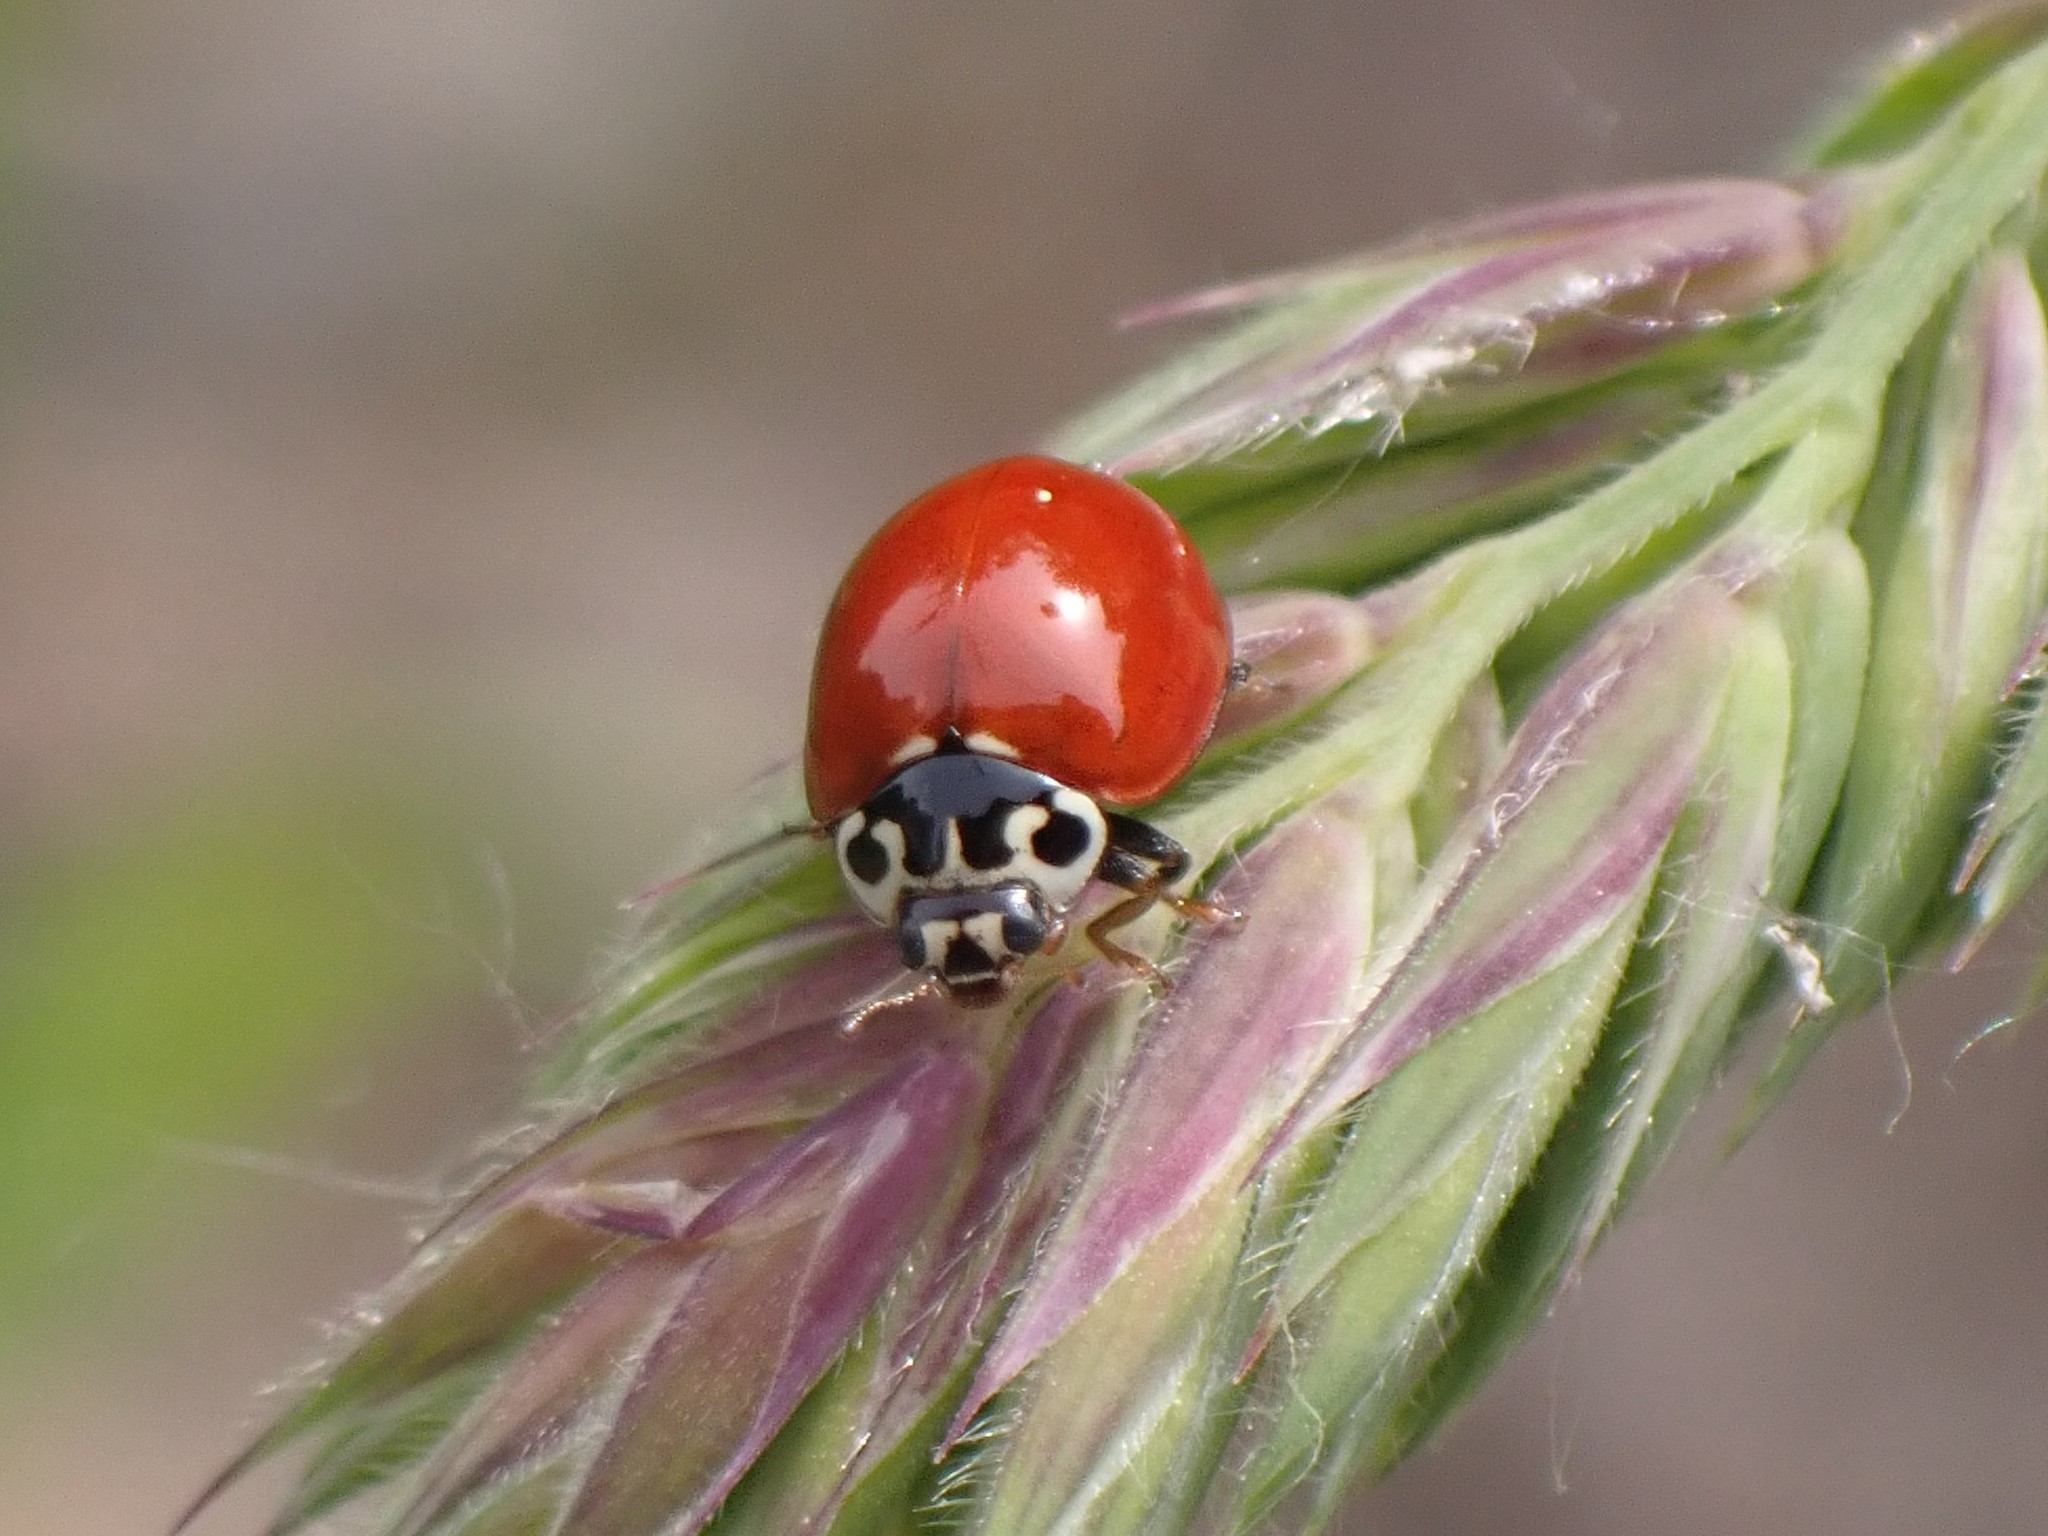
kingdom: Animalia
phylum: Arthropoda
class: Insecta
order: Coleoptera
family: Coccinellidae
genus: Cycloneda
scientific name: Cycloneda polita
